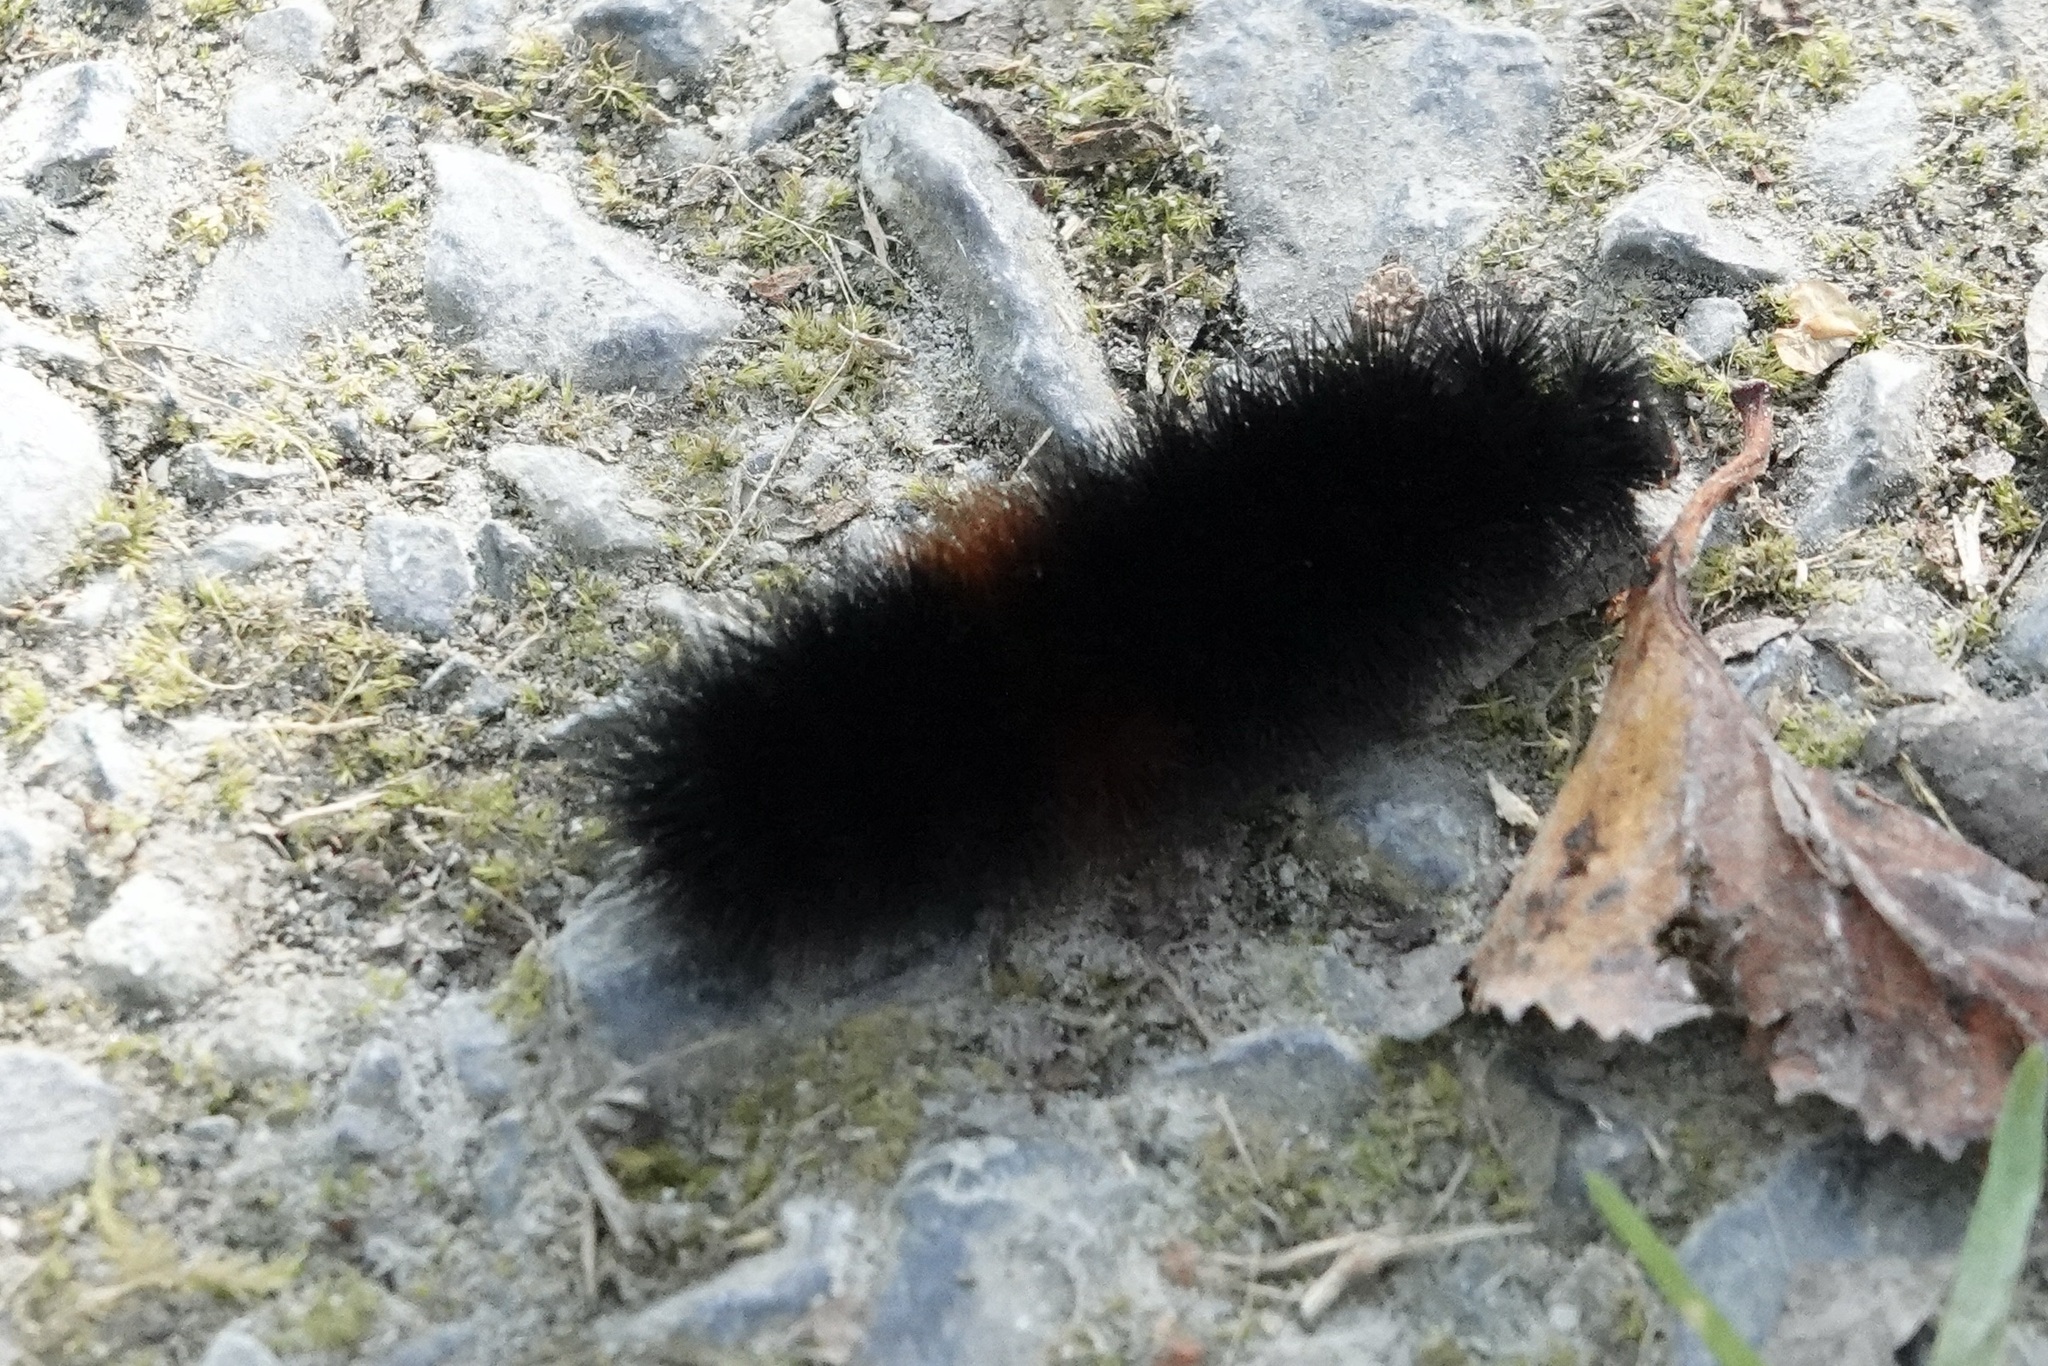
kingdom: Animalia
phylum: Arthropoda
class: Insecta
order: Lepidoptera
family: Erebidae
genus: Pyrrharctia
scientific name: Pyrrharctia isabella
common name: Isabella tiger moth
